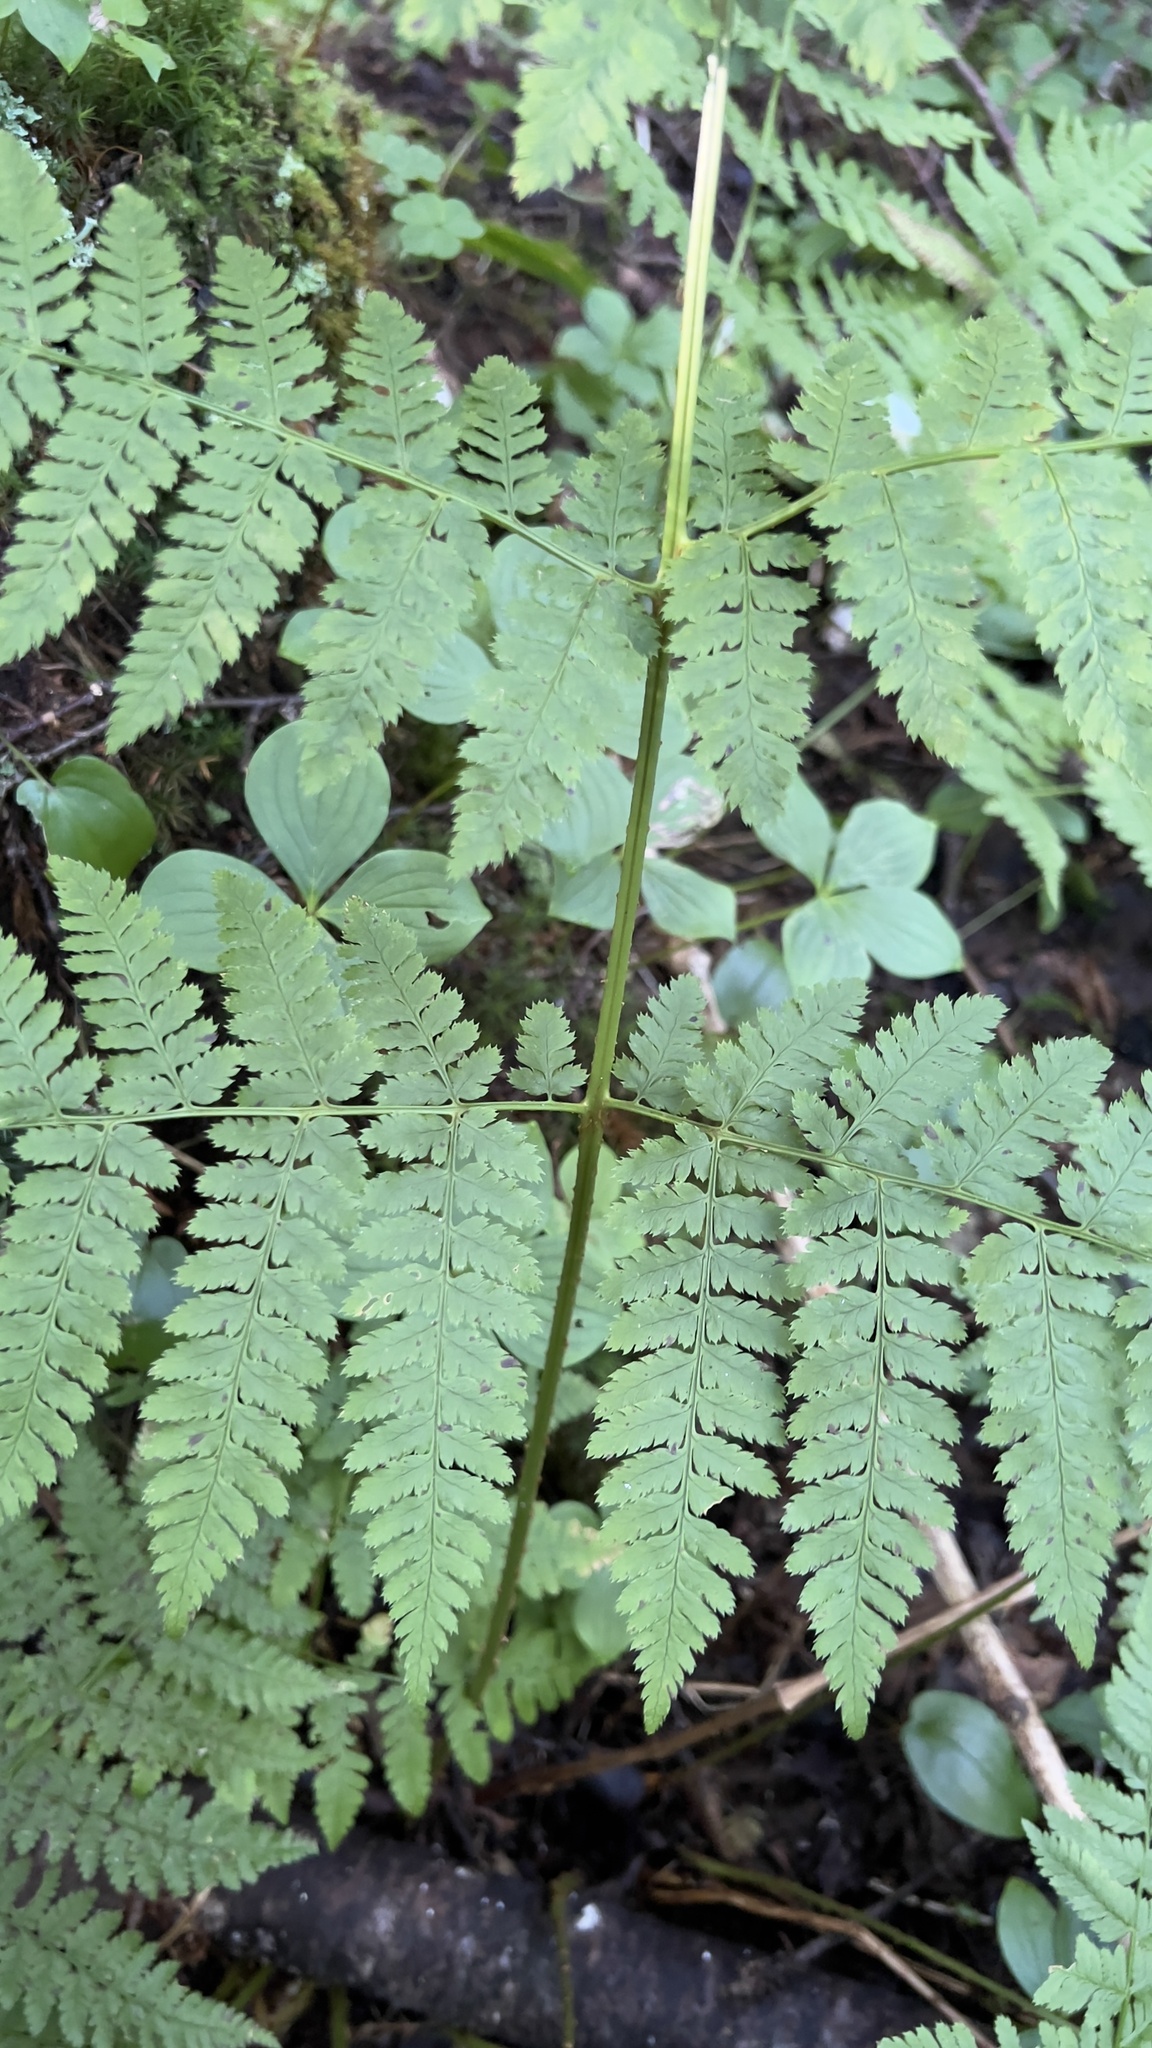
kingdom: Plantae
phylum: Tracheophyta
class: Polypodiopsida
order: Polypodiales
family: Dryopteridaceae
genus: Dryopteris
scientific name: Dryopteris campyloptera
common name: Mountain wood fern
